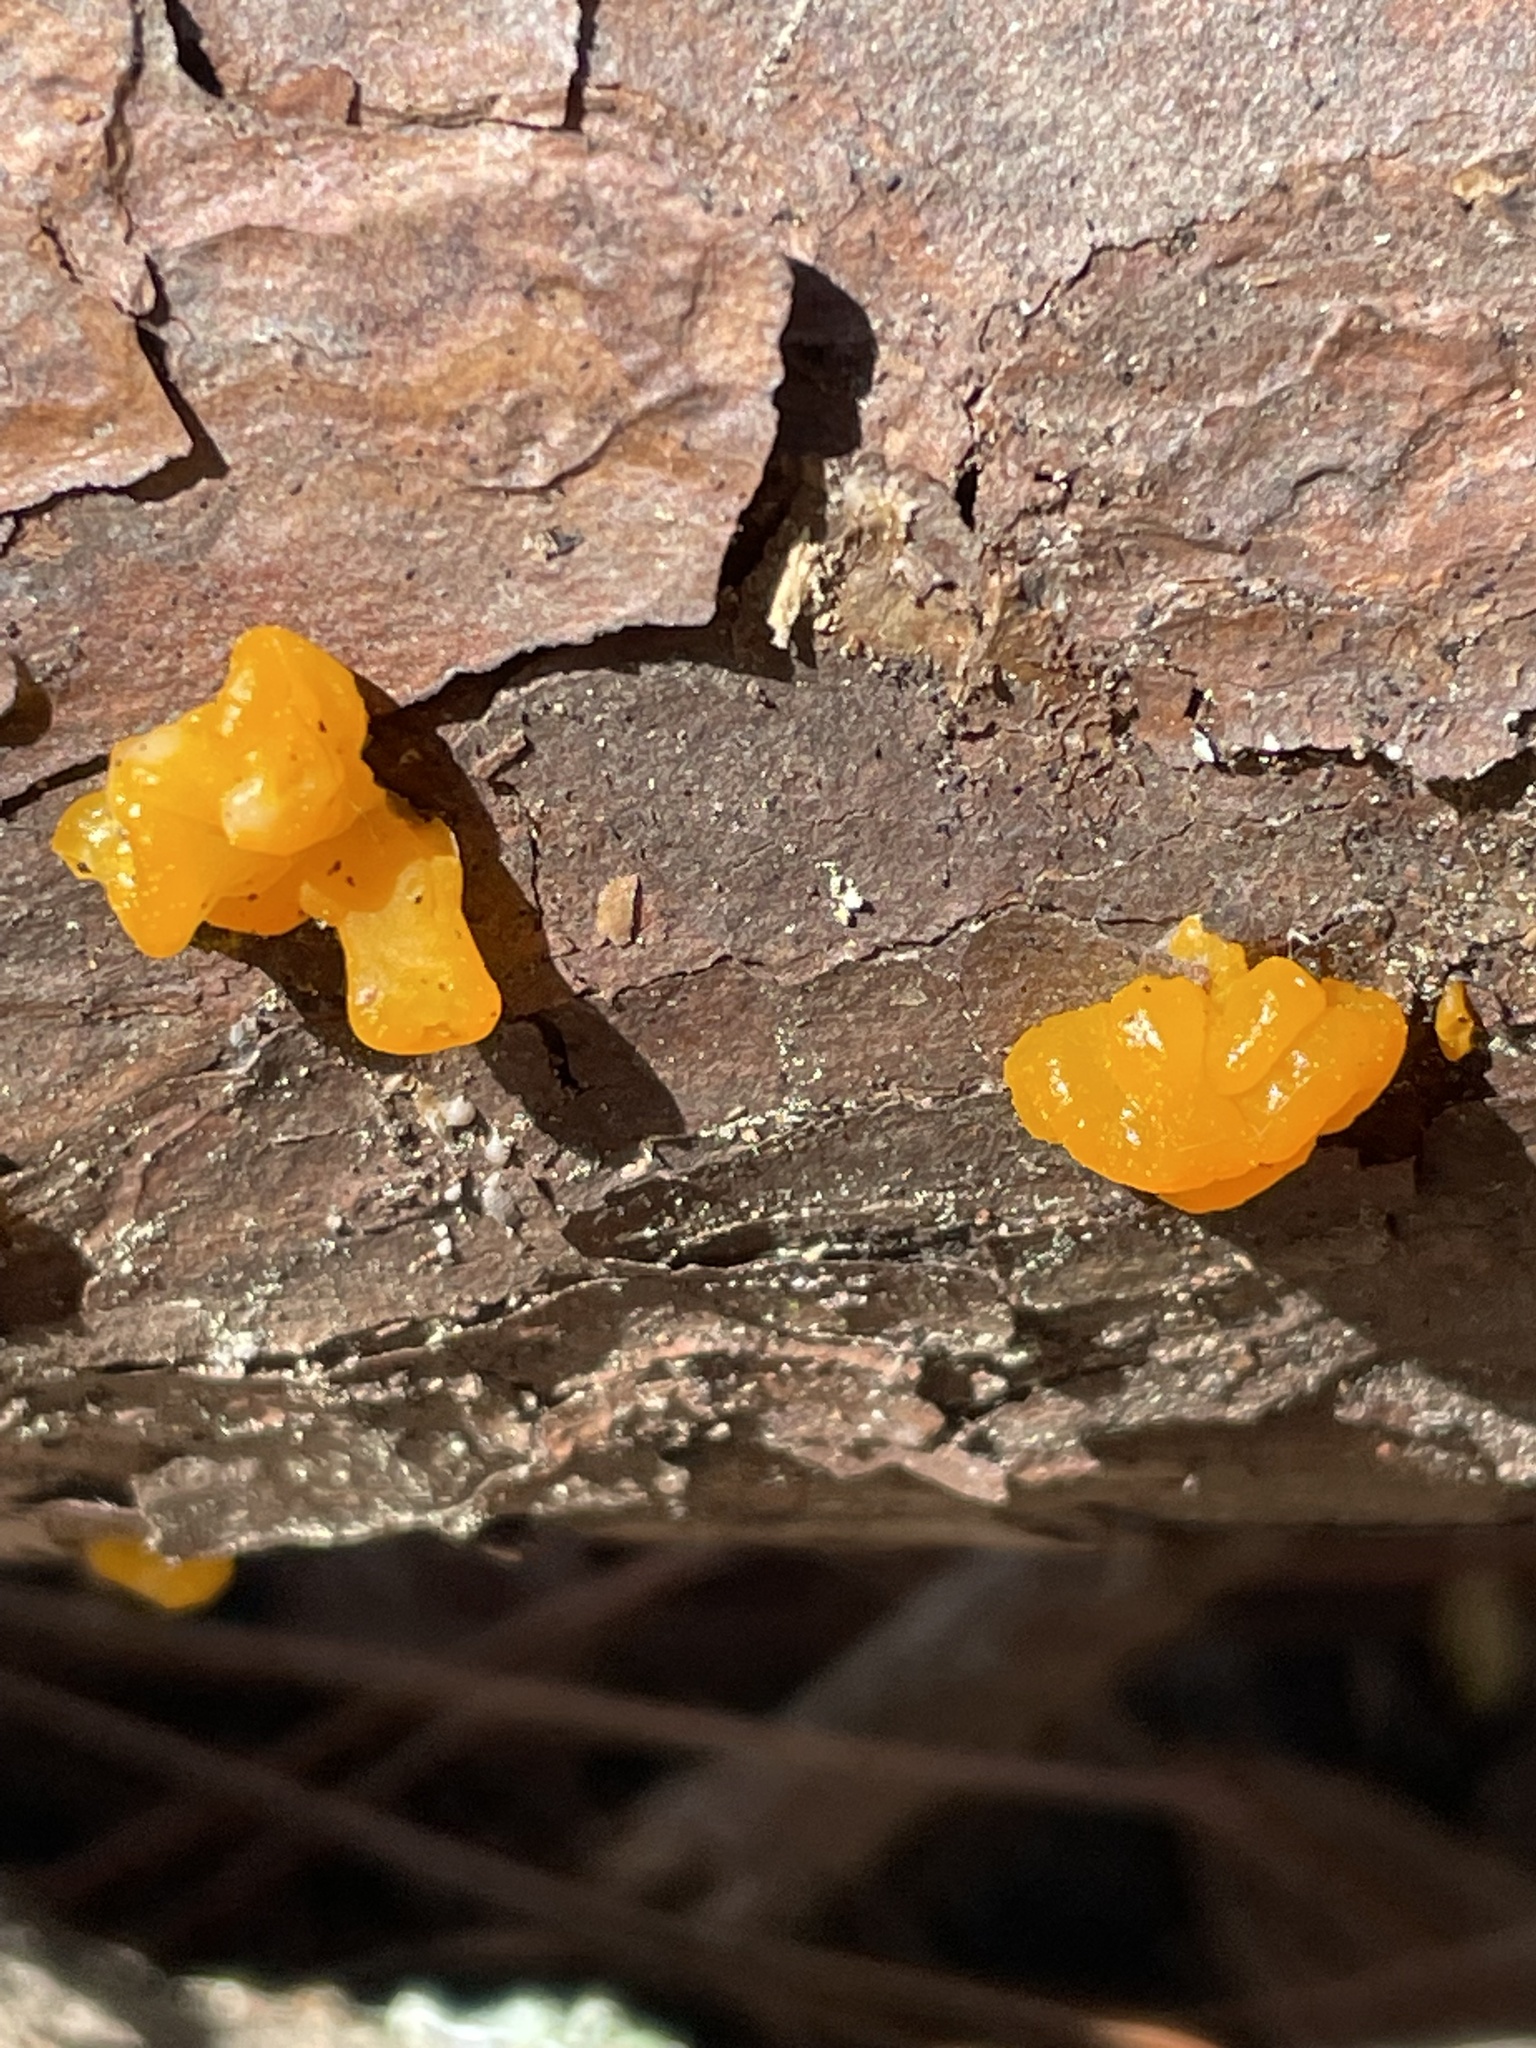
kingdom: Fungi
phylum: Basidiomycota
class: Dacrymycetes
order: Dacrymycetales
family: Dacrymycetaceae
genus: Dacrymyces
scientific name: Dacrymyces chrysospermus
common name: Orange jelly spot
